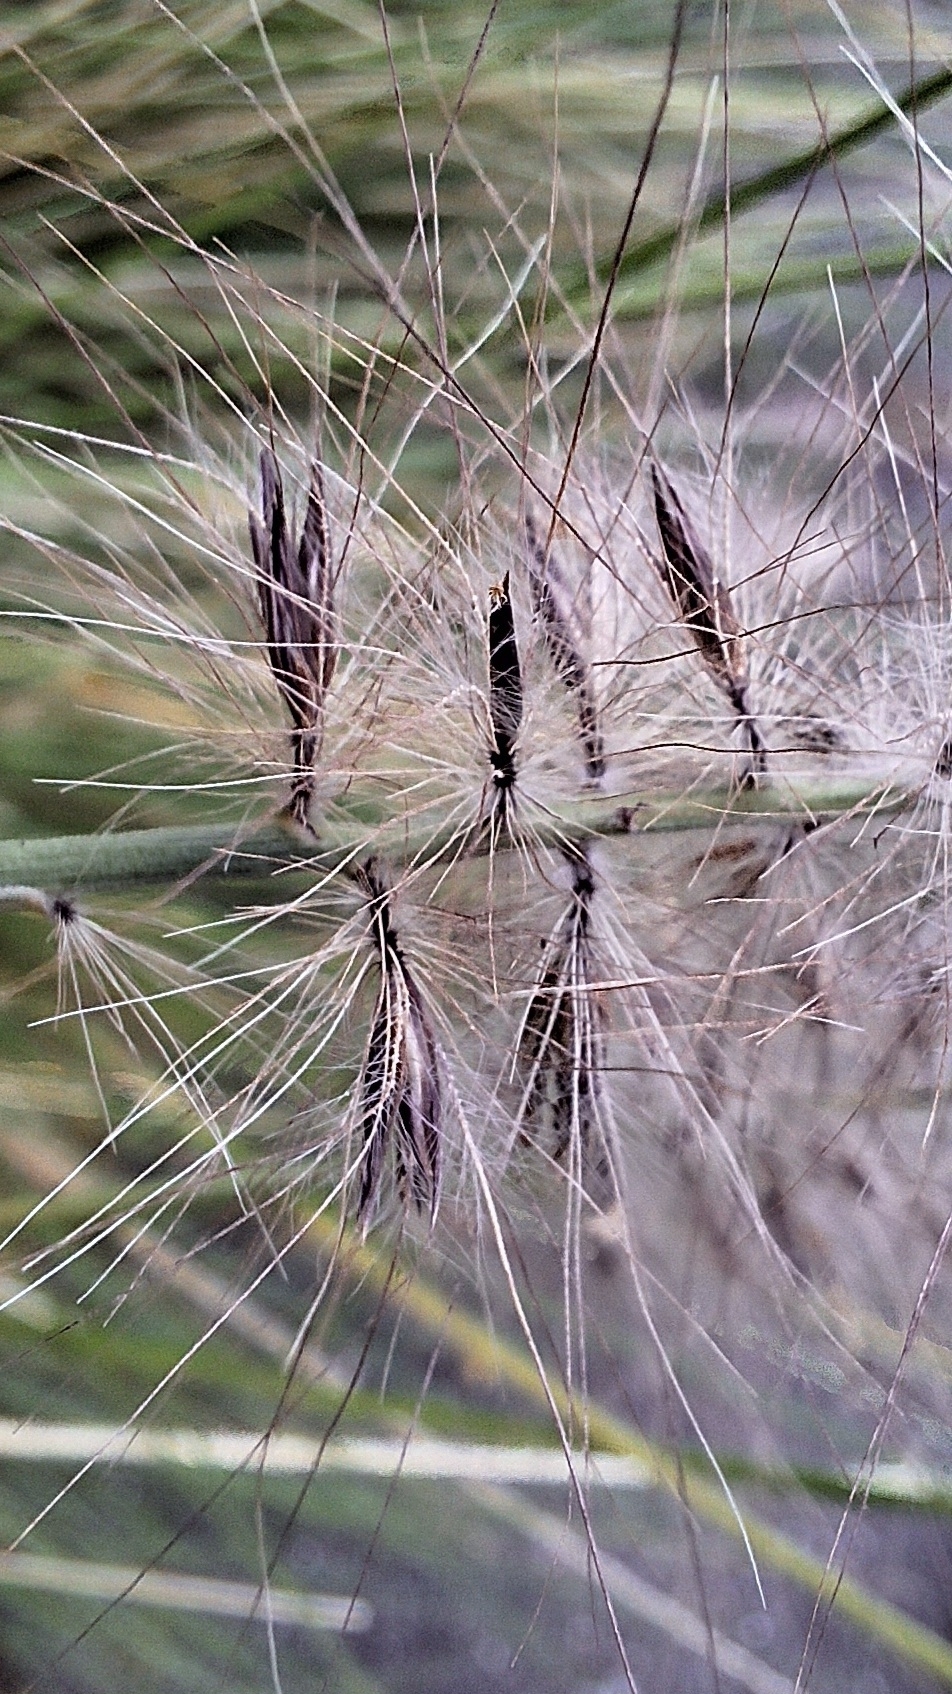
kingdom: Plantae
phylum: Tracheophyta
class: Liliopsida
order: Poales
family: Poaceae
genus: Cenchrus
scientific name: Cenchrus setaceus
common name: Crimson fountaingrass
